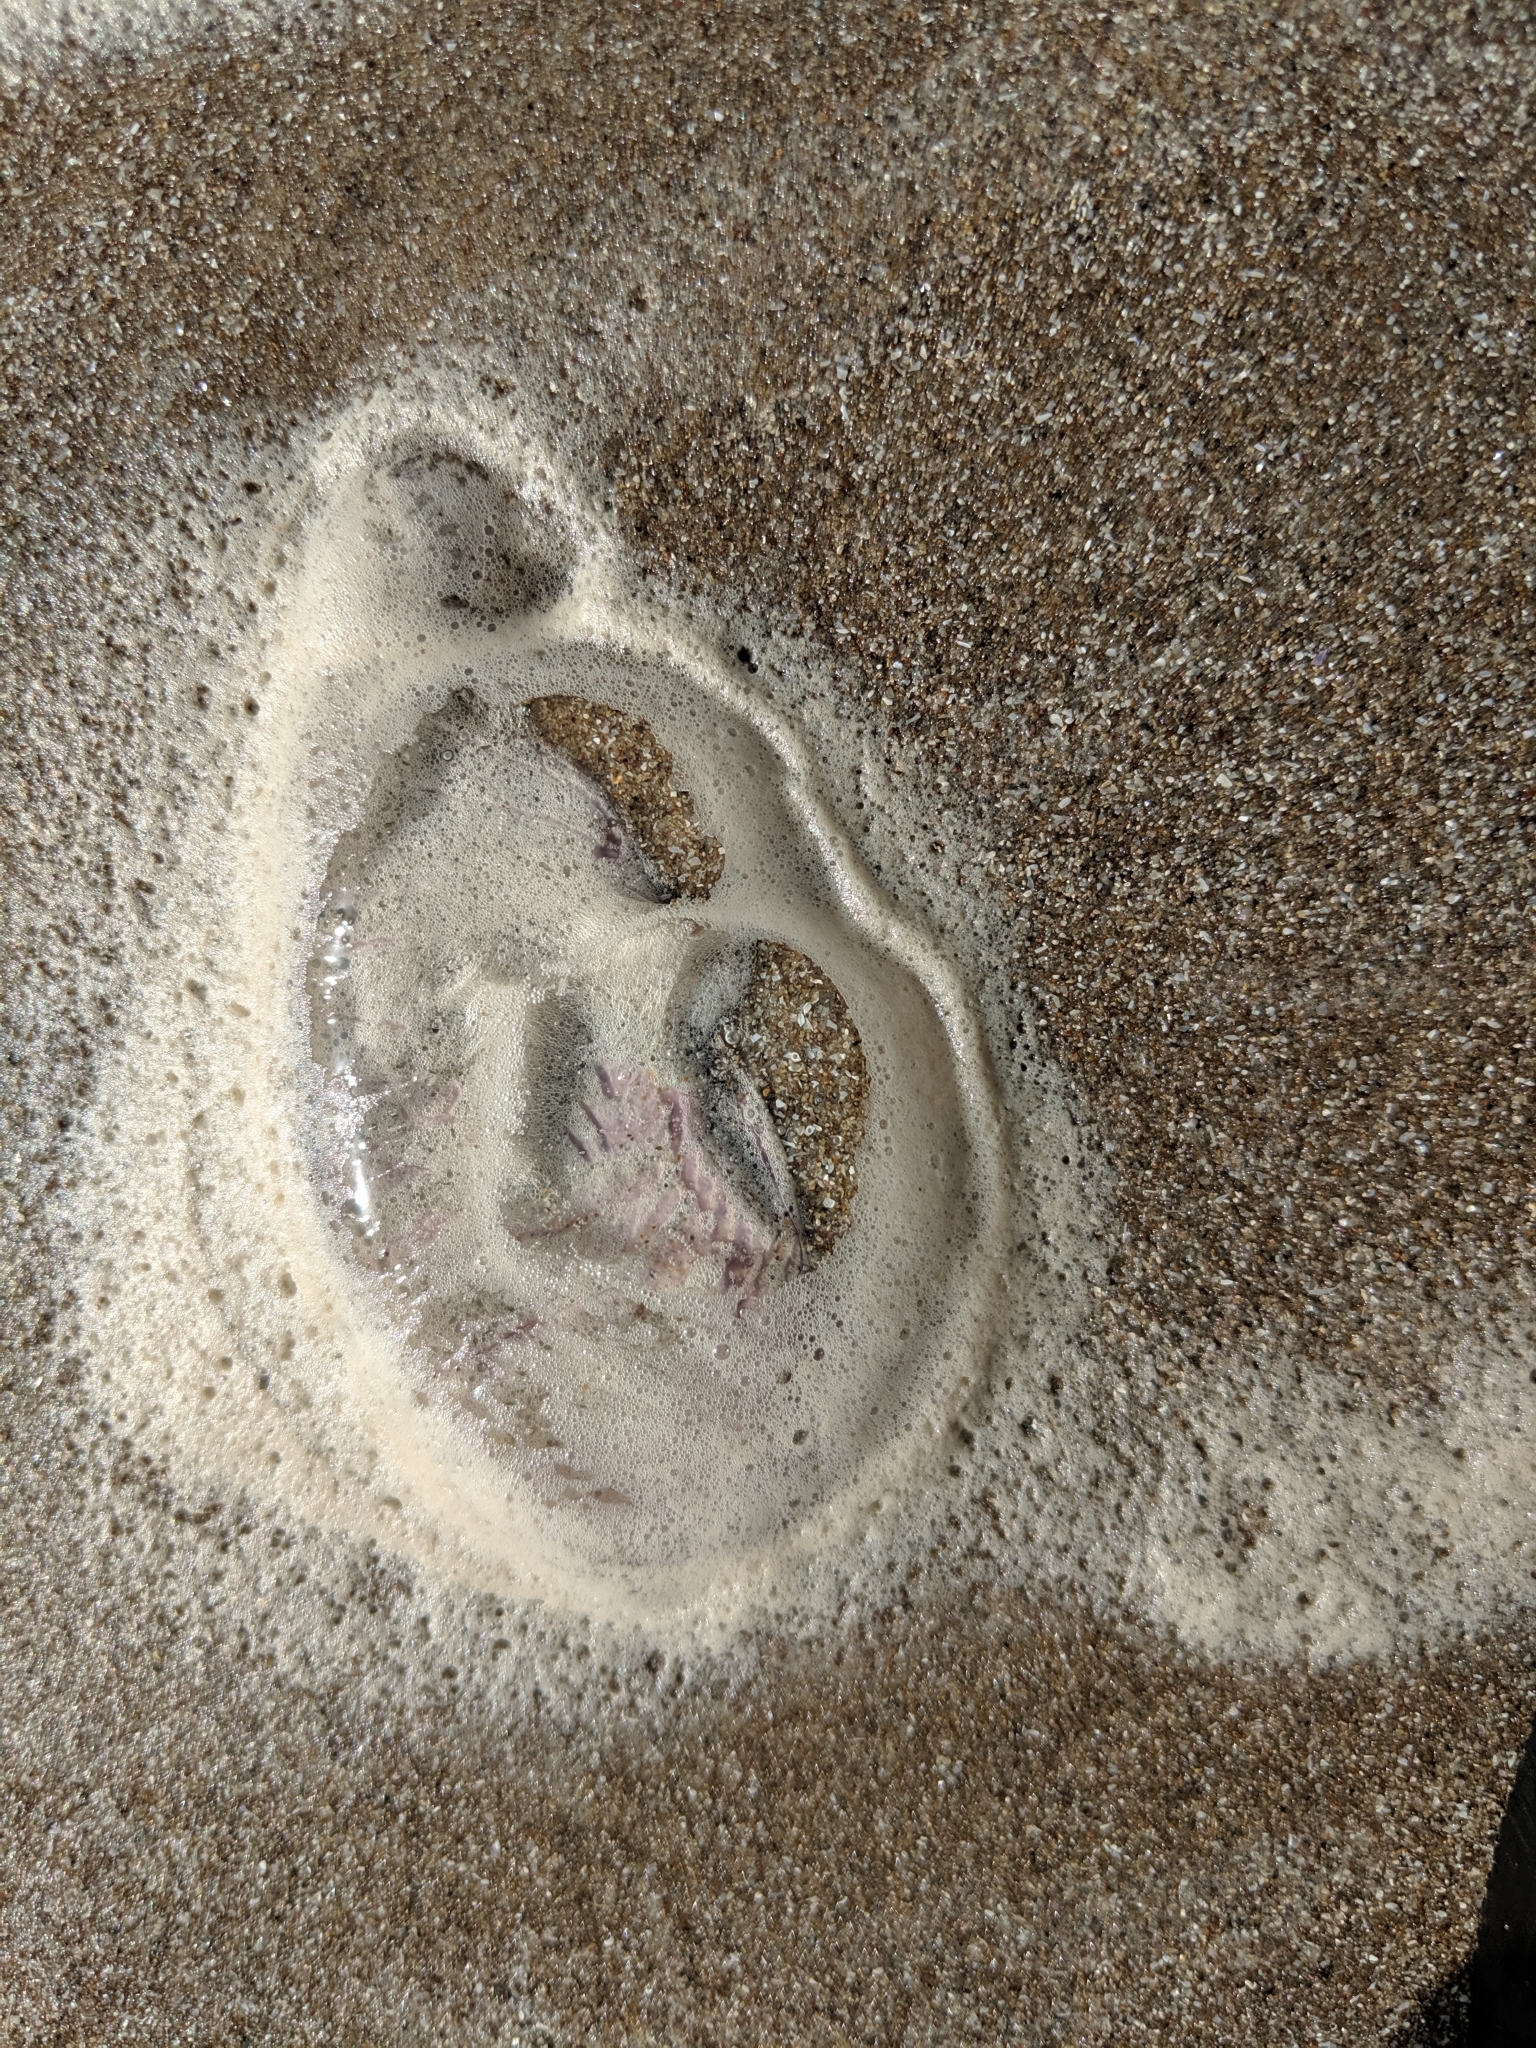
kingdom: Animalia
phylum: Cnidaria
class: Scyphozoa
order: Semaeostomeae
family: Ulmaridae
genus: Aurelia
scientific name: Aurelia marginalis
